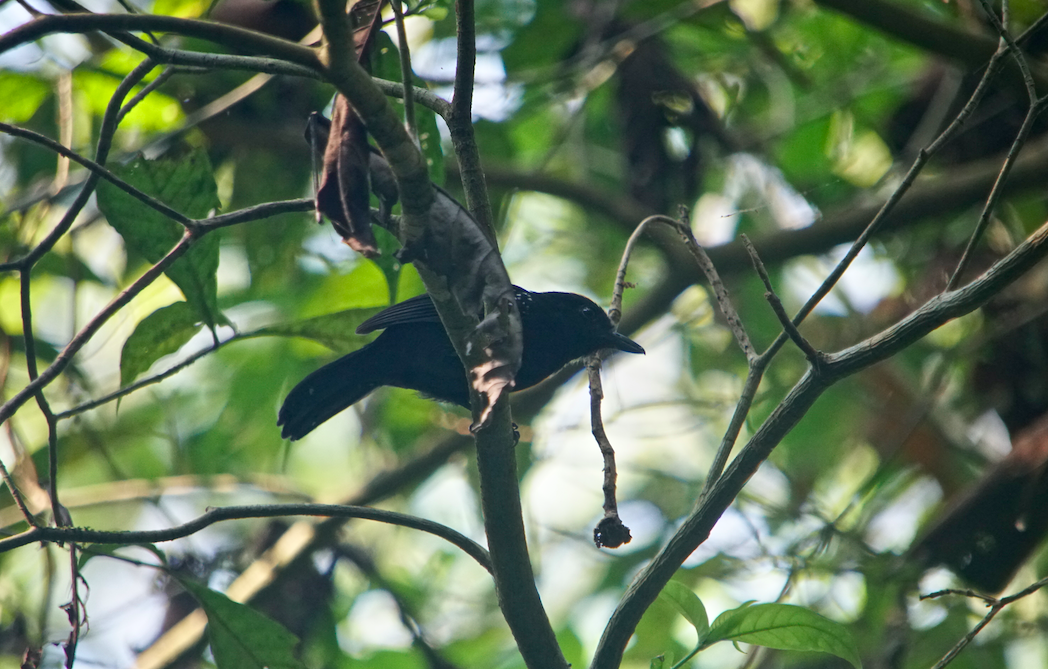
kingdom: Animalia
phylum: Chordata
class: Aves
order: Passeriformes
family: Thamnophilidae
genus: Thamnophilus
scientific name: Thamnophilus bridgesi
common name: Black-hooded antshrike
